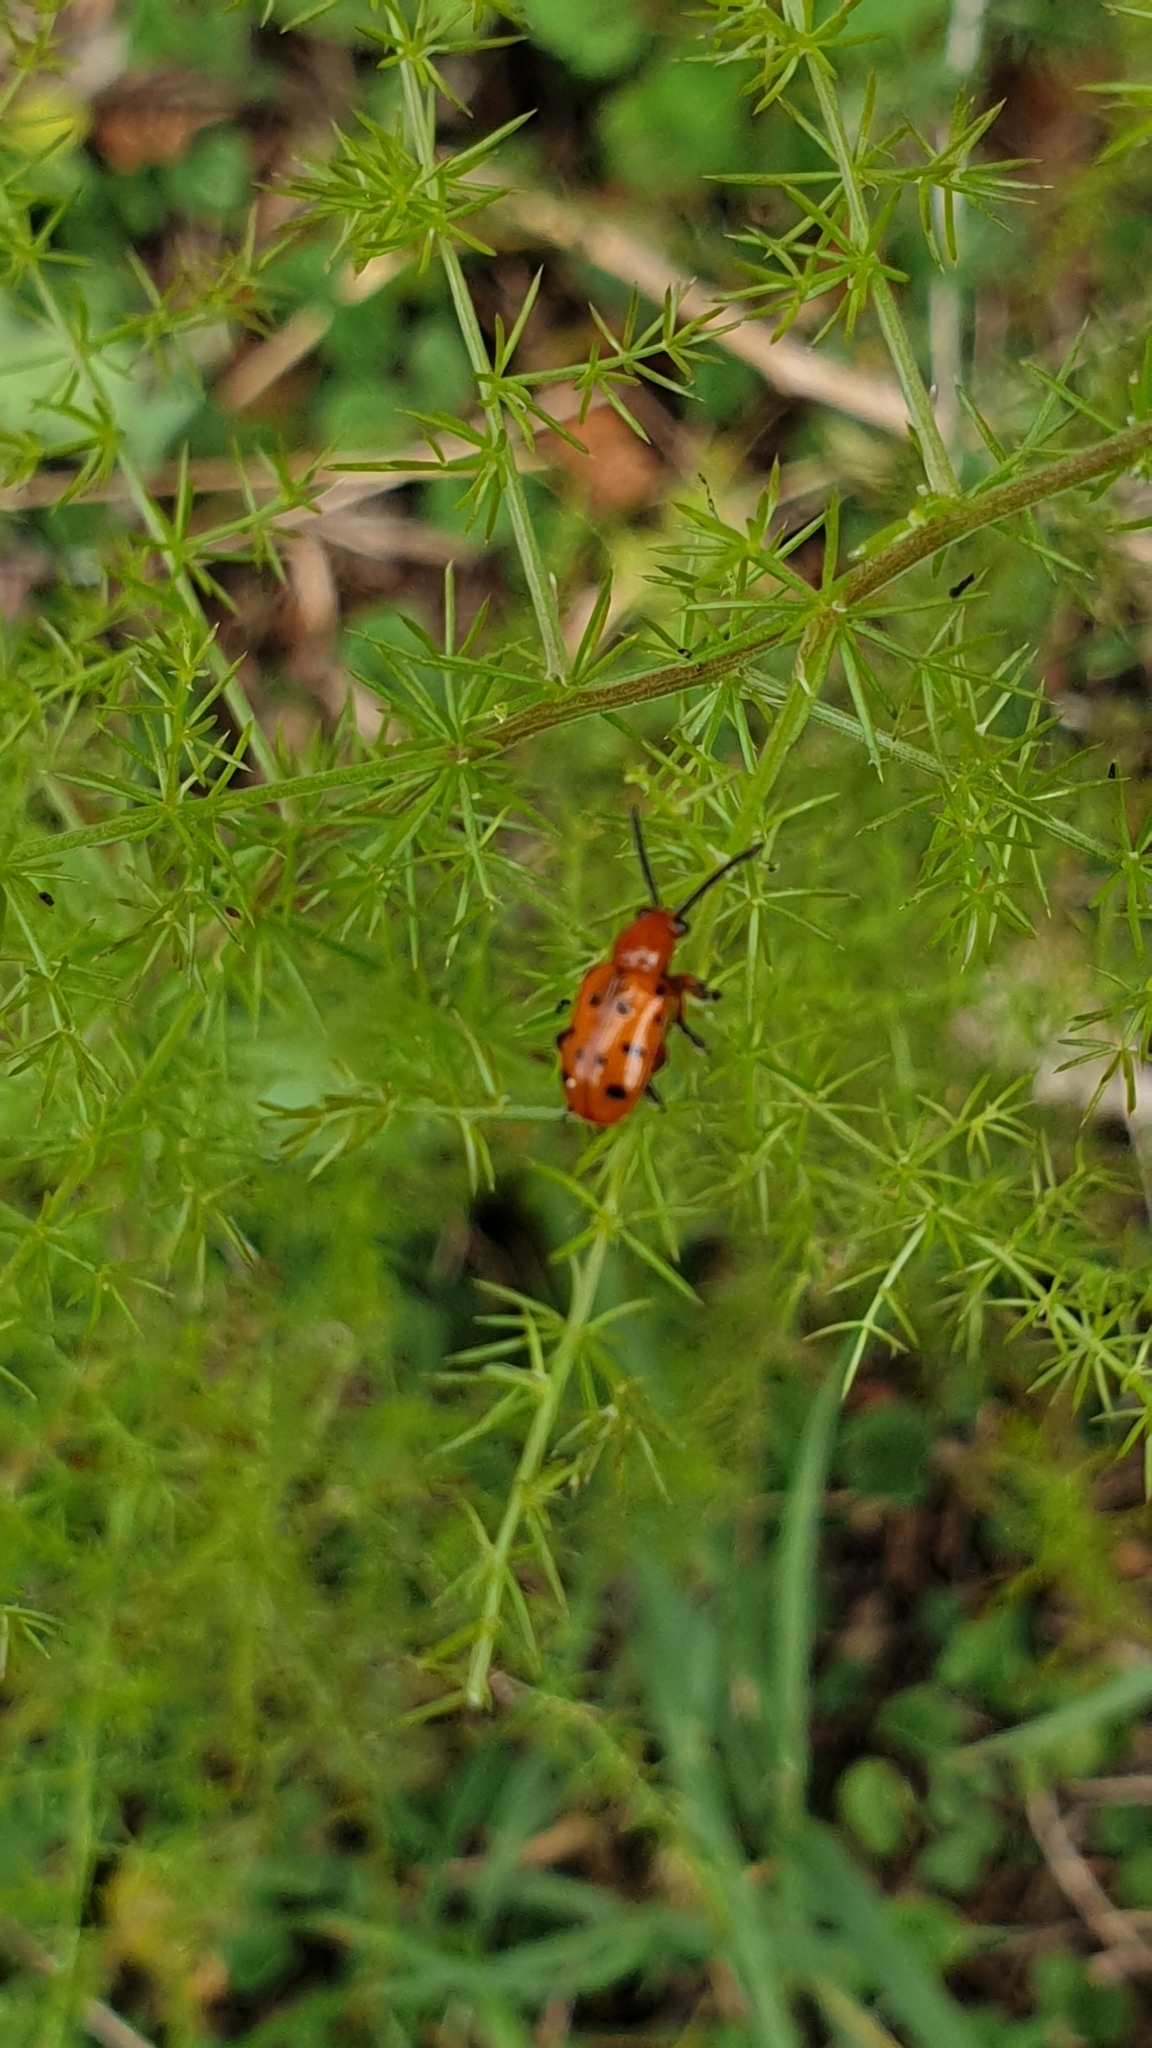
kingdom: Animalia
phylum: Arthropoda
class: Insecta
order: Coleoptera
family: Chrysomelidae
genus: Crioceris
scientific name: Crioceris duodecimpunctata
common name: Twelve-spotted asparagus beetle
